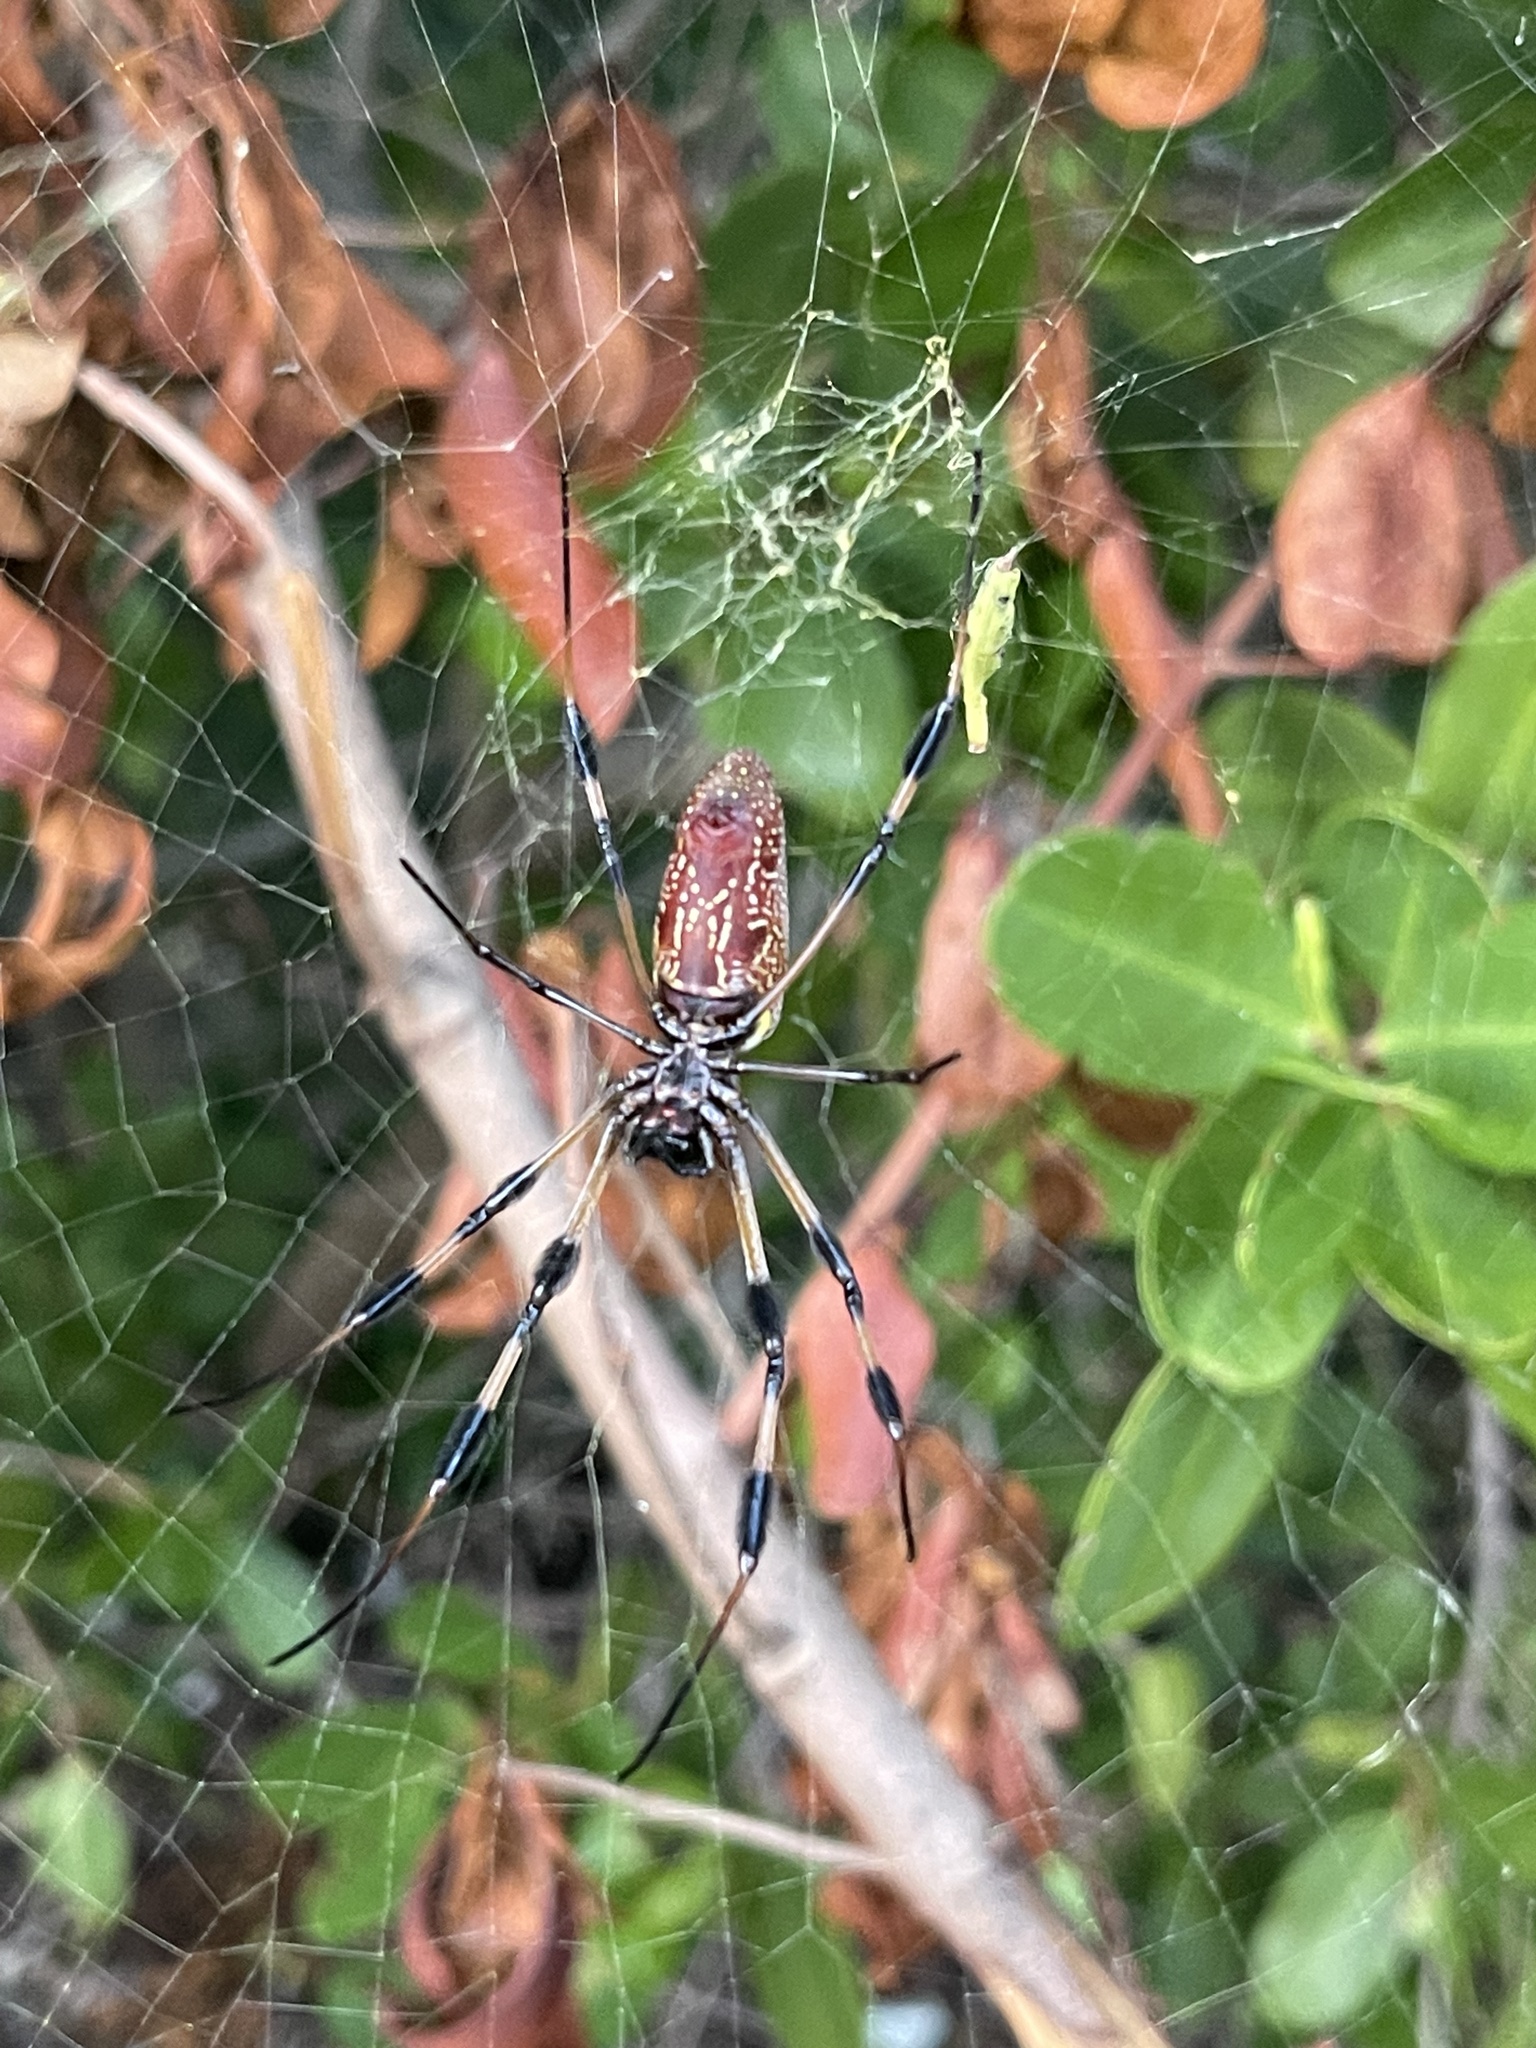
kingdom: Animalia
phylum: Arthropoda
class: Arachnida
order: Araneae
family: Araneidae
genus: Trichonephila
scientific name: Trichonephila clavipes
